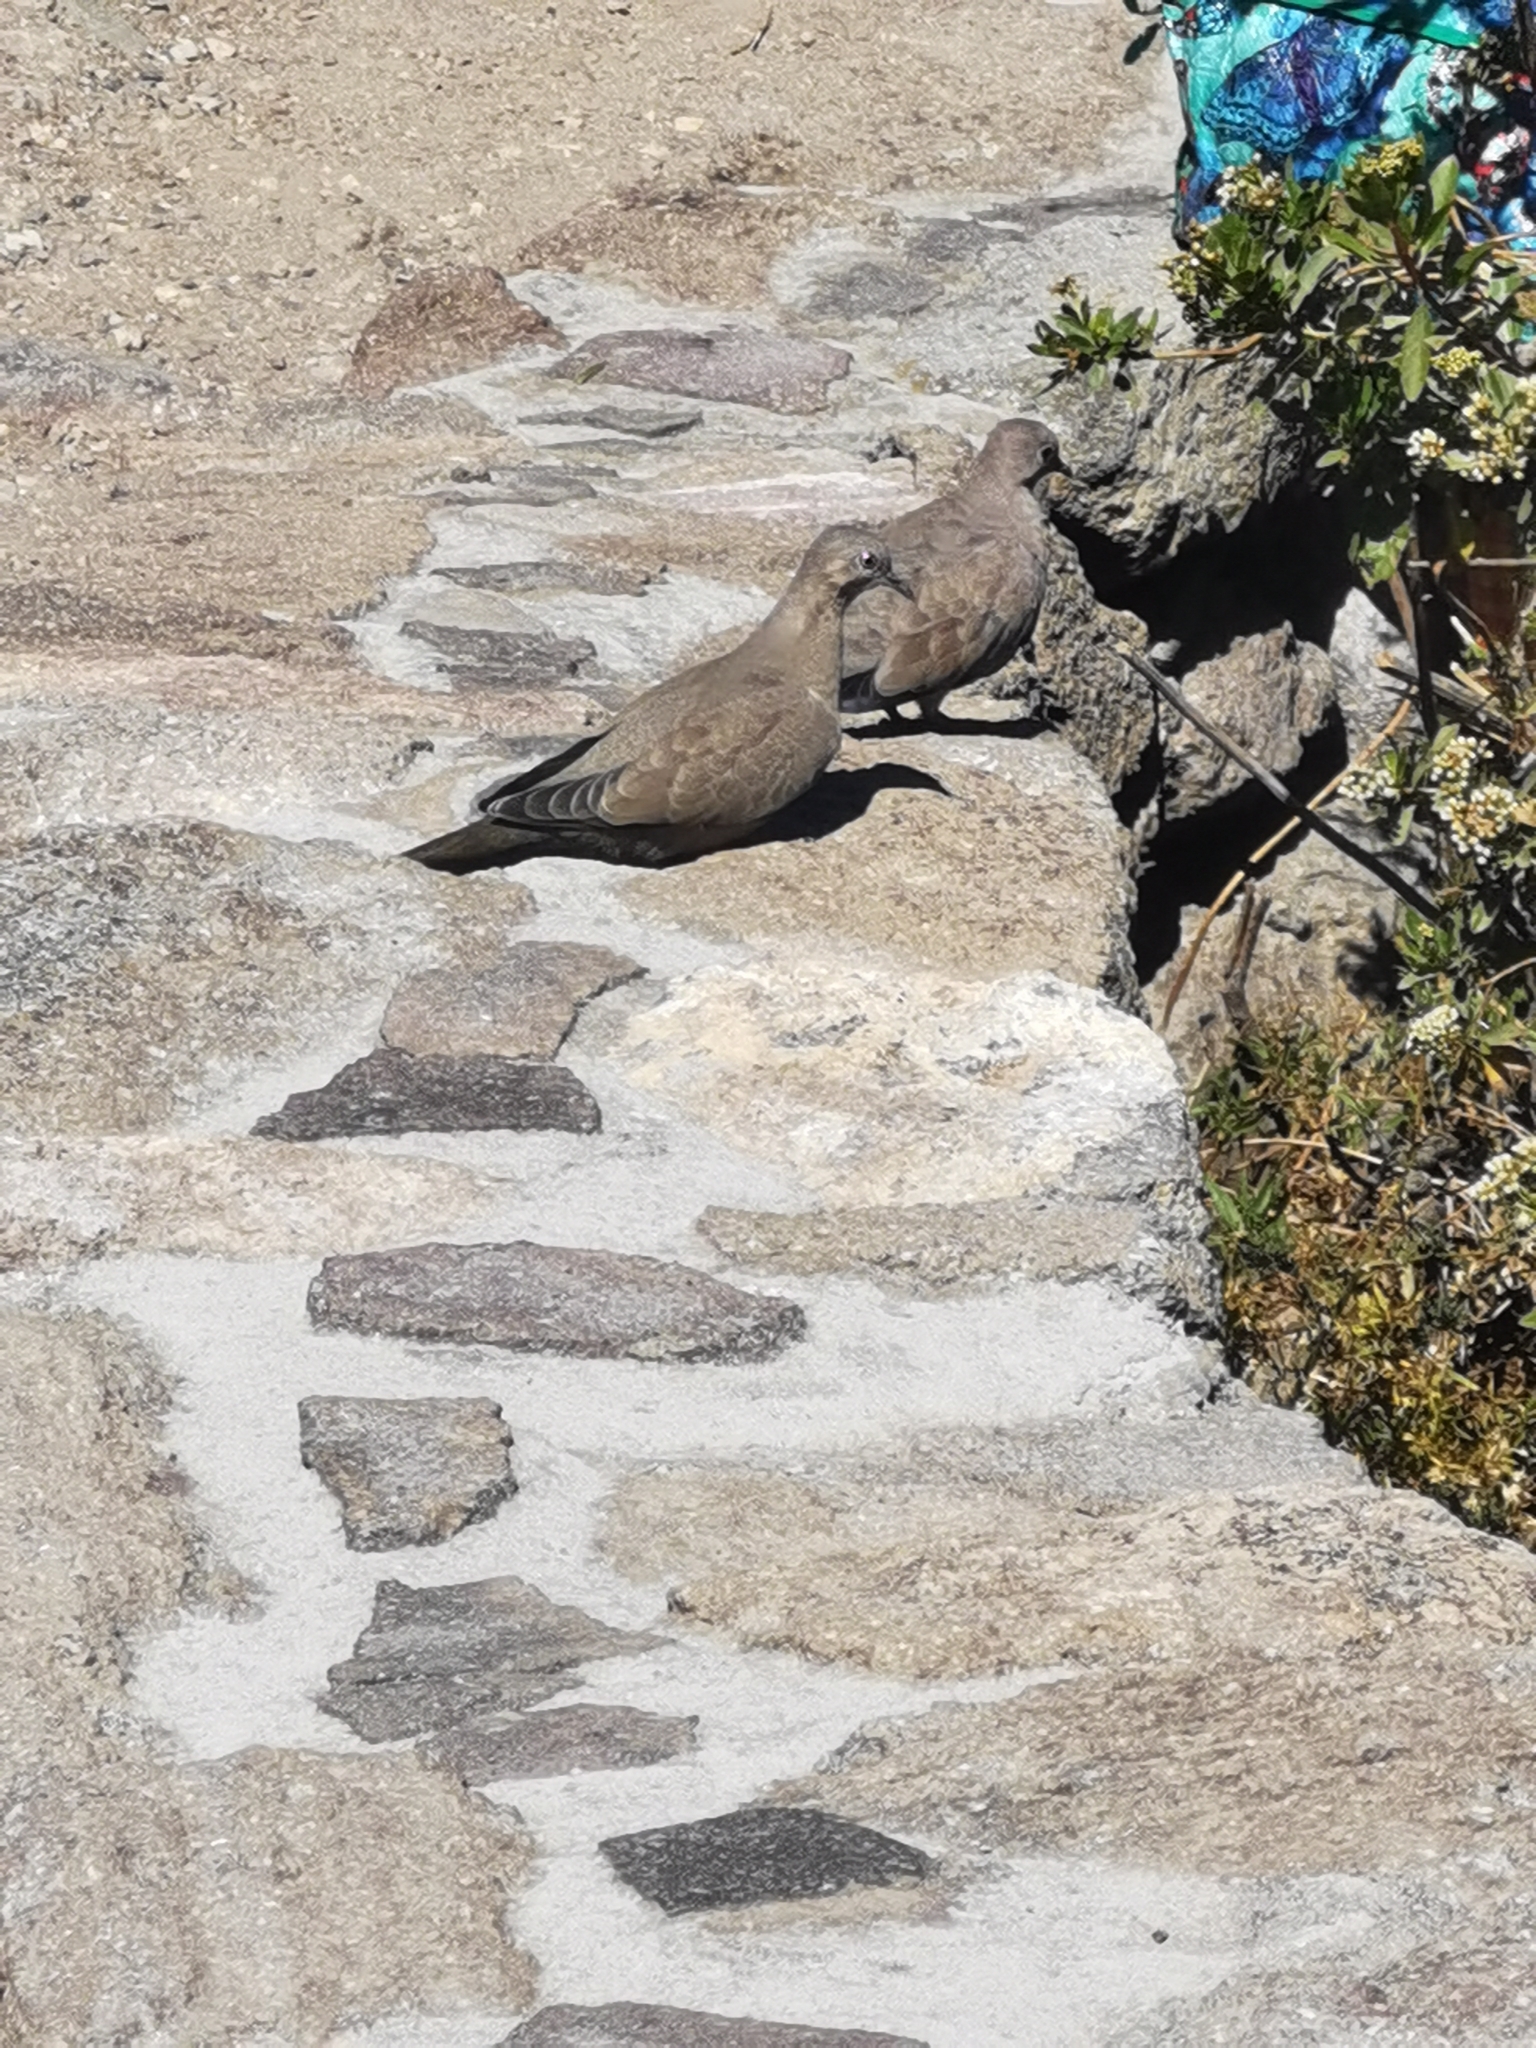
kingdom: Animalia
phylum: Chordata
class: Aves
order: Columbiformes
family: Columbidae
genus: Metriopelia
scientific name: Metriopelia melanoptera
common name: Black-winged ground dove
